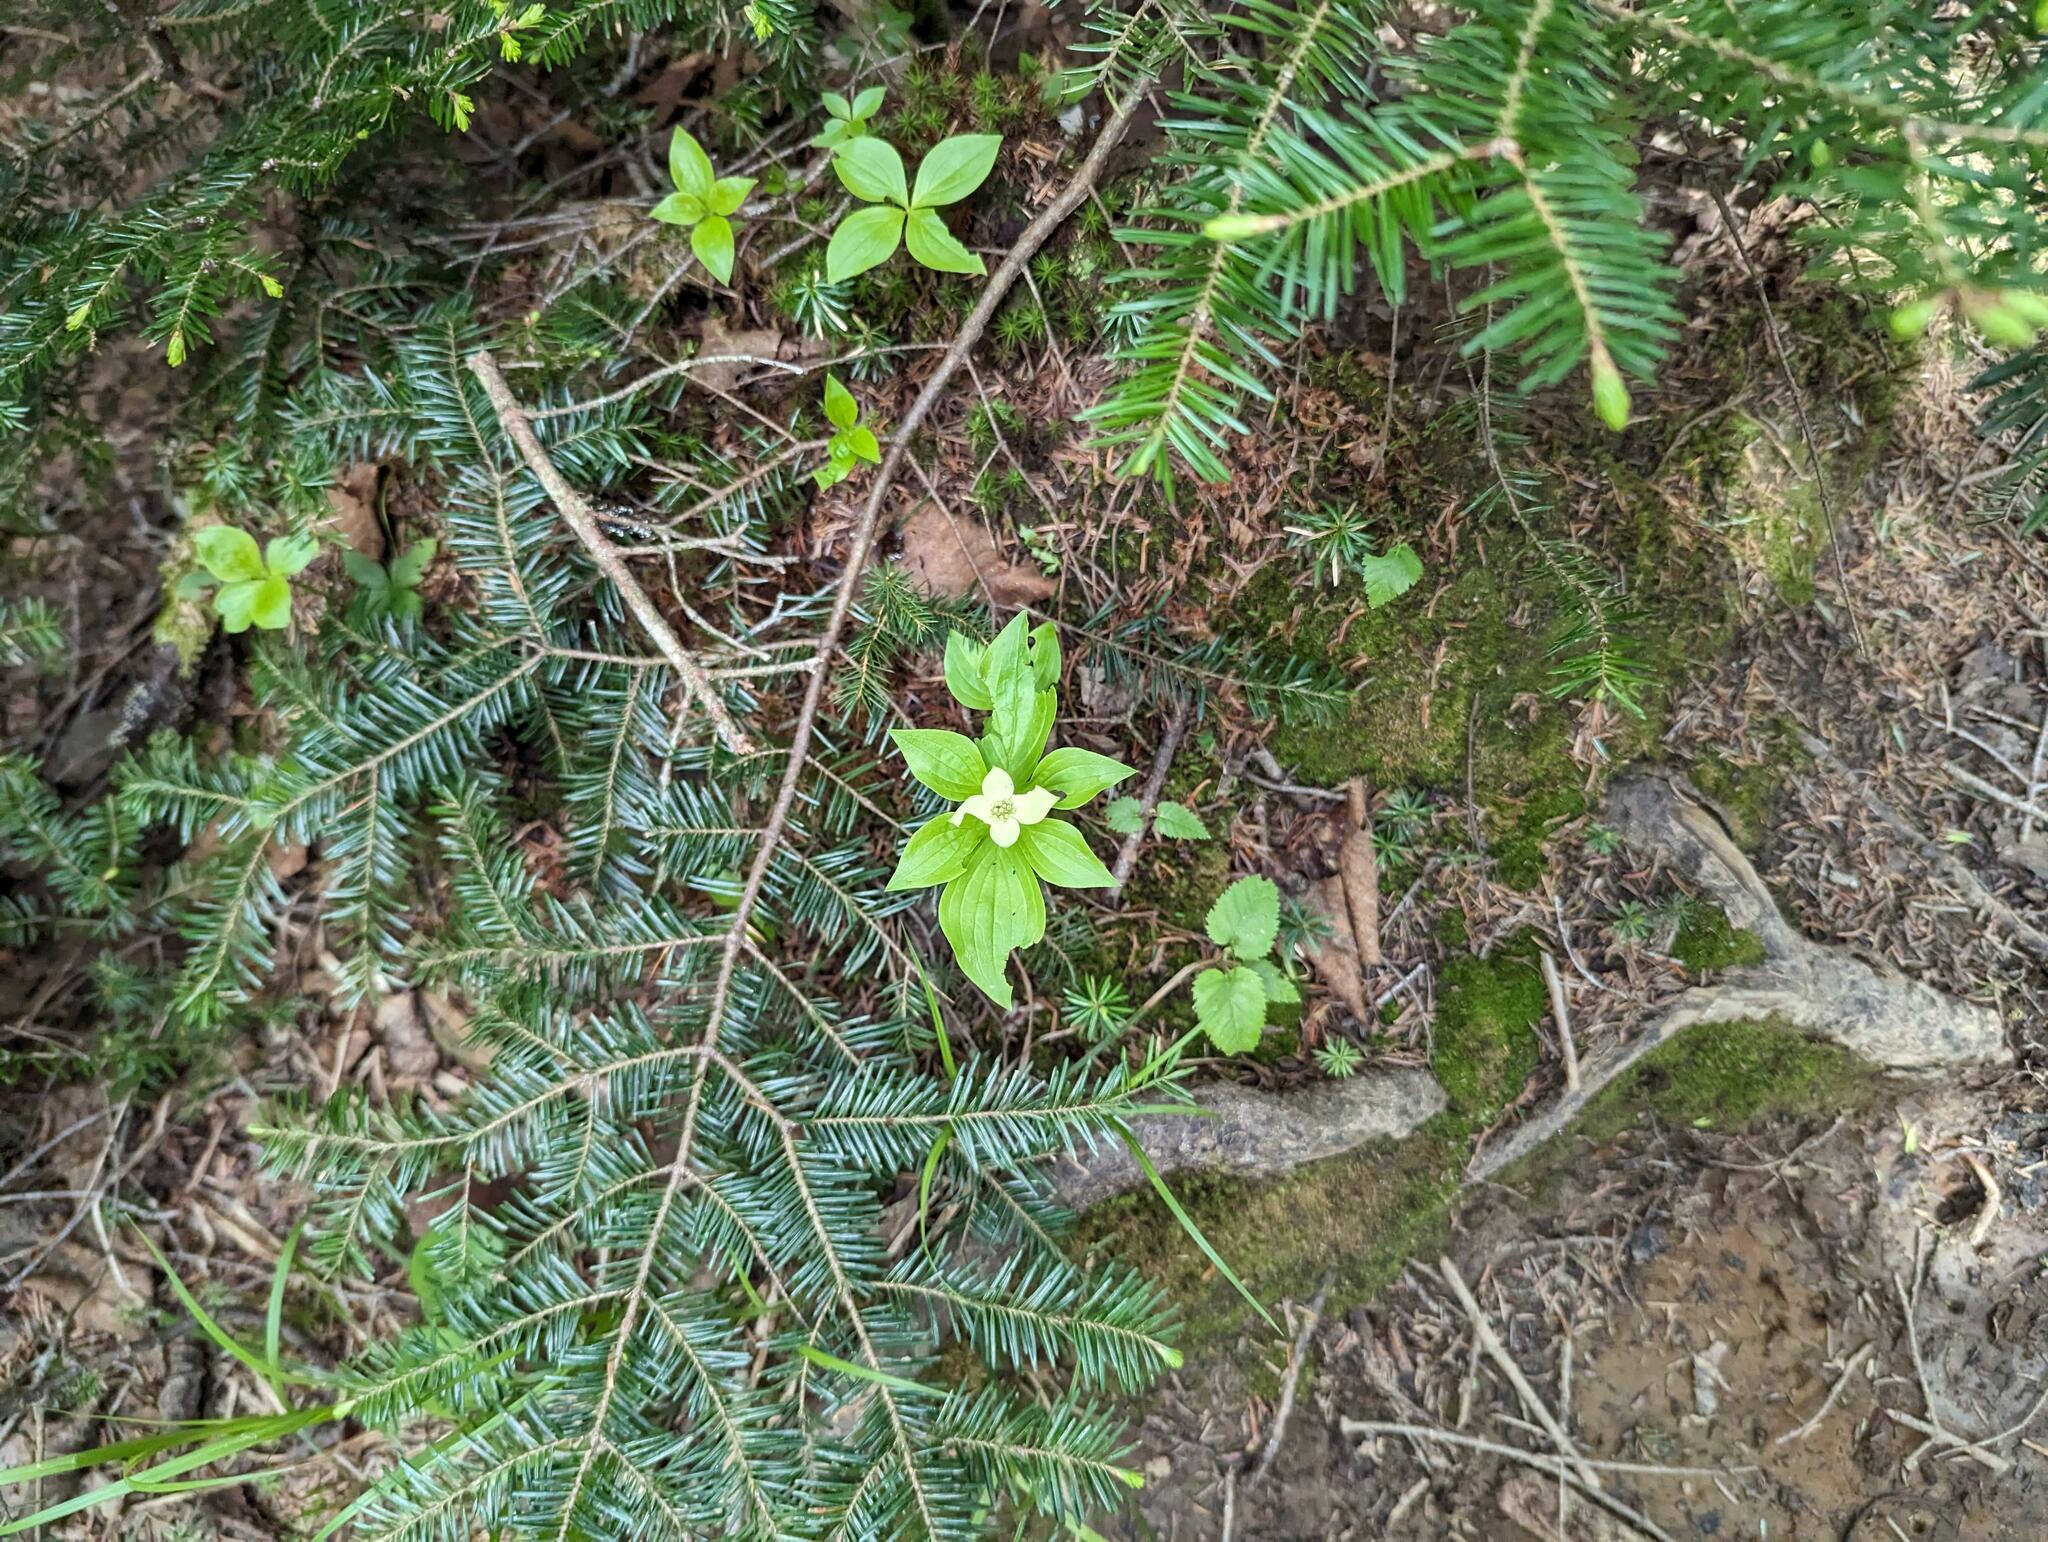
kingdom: Plantae
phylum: Tracheophyta
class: Magnoliopsida
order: Cornales
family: Cornaceae
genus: Cornus
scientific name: Cornus canadensis
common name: Creeping dogwood
